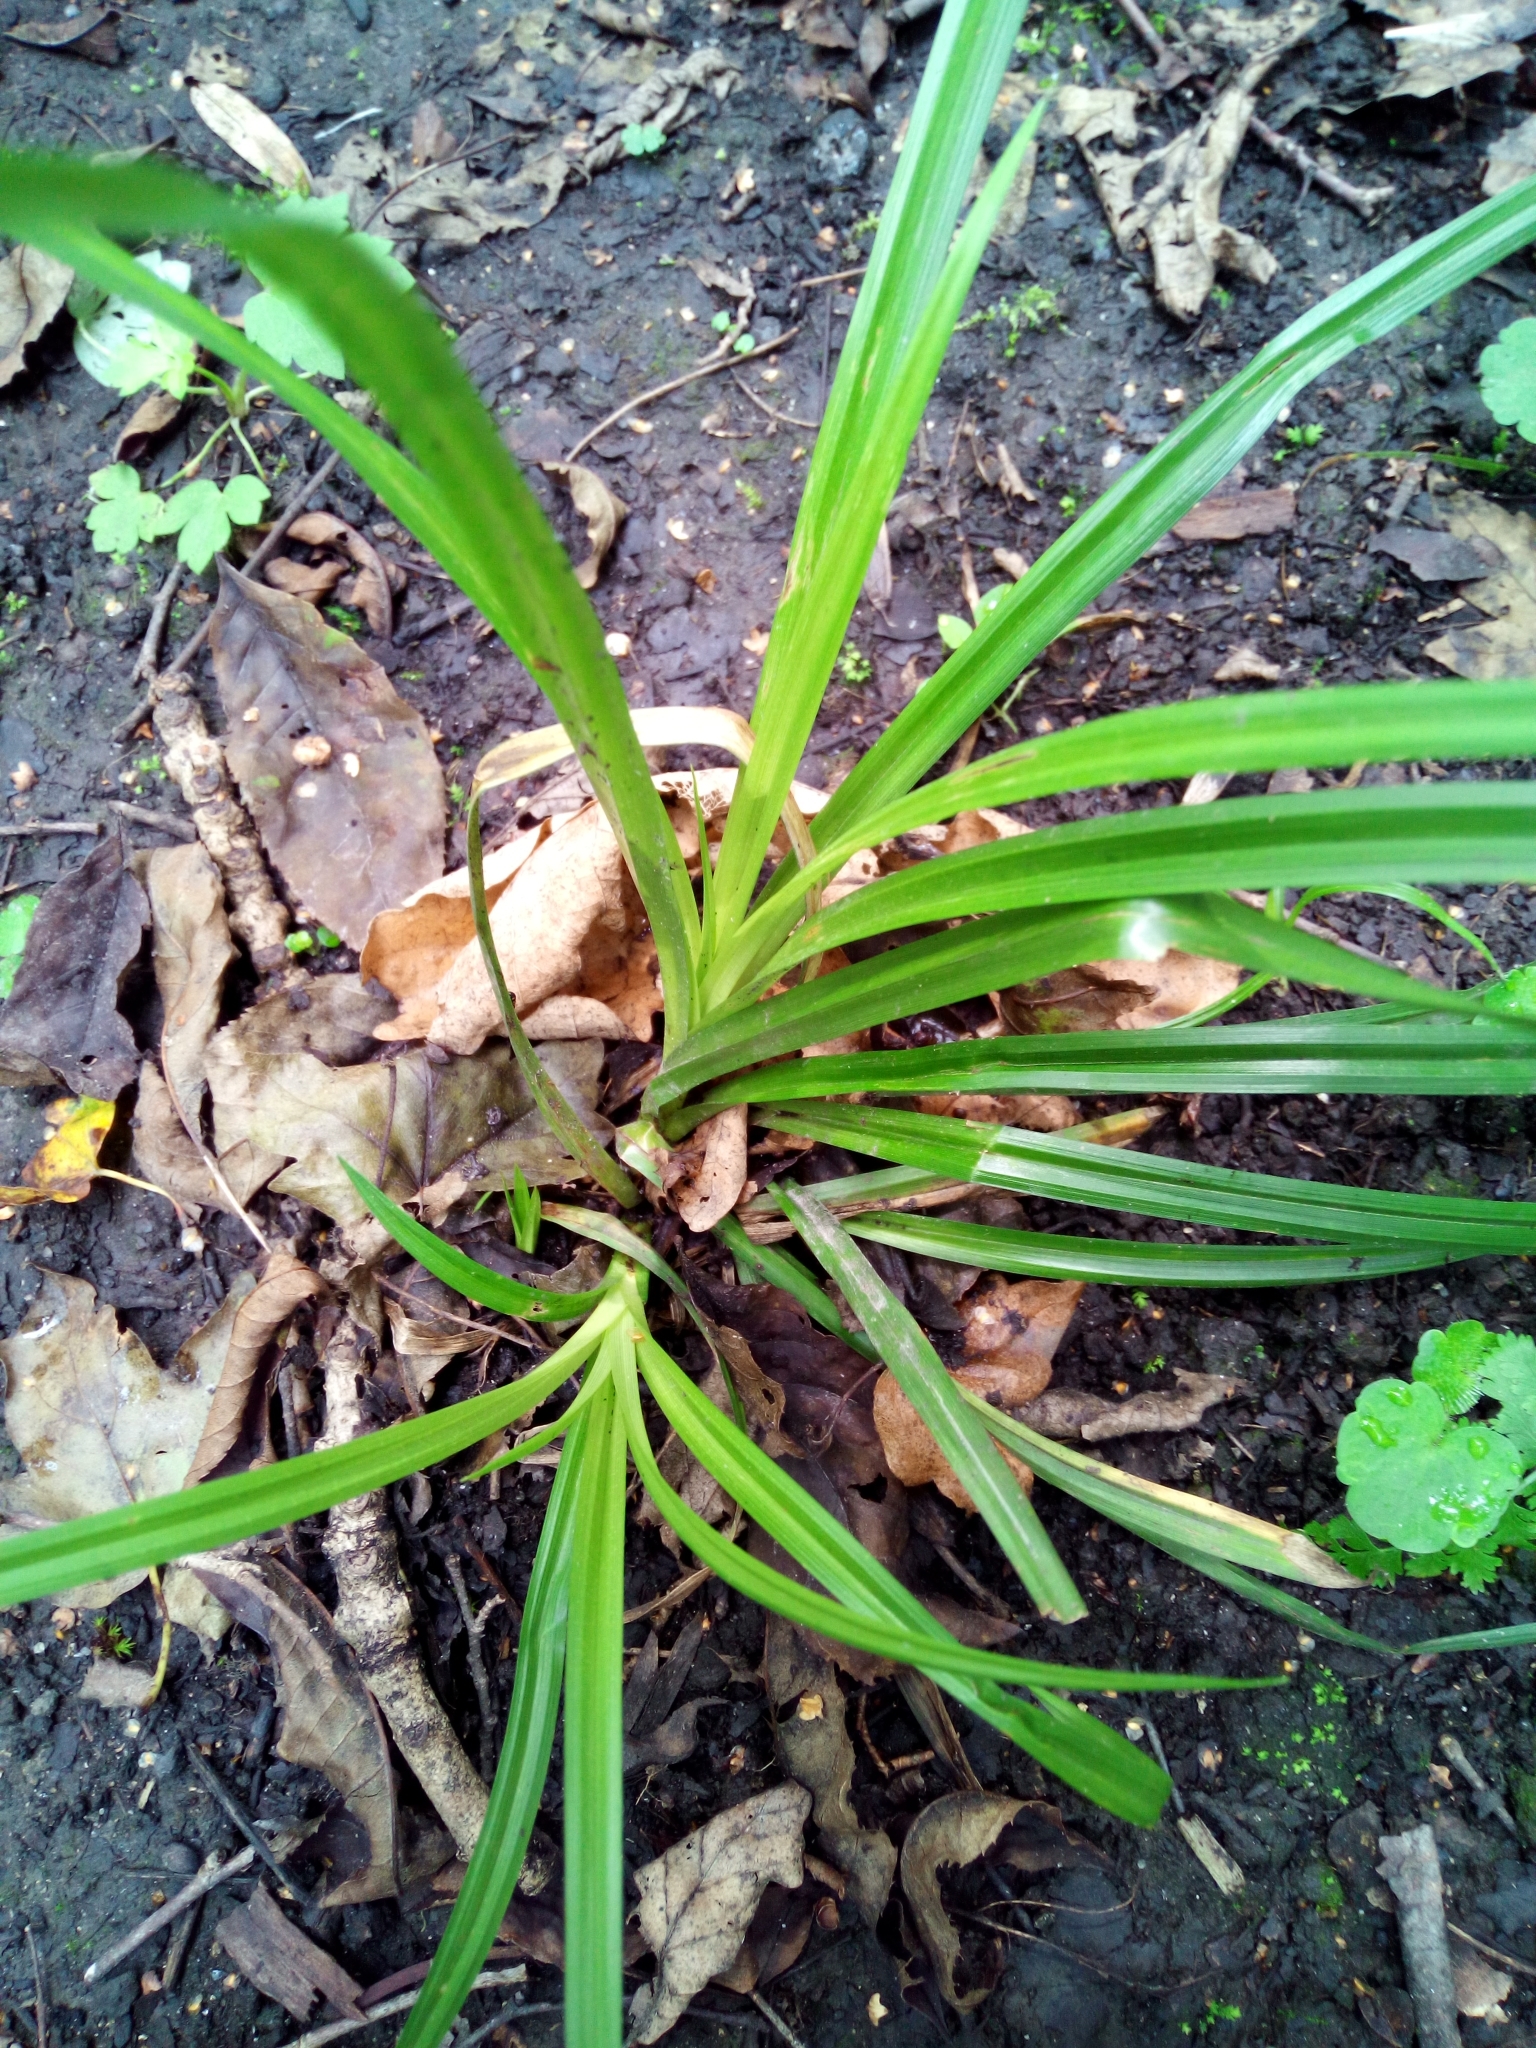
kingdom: Plantae
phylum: Tracheophyta
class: Liliopsida
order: Poales
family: Cyperaceae
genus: Carex
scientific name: Carex sylvatica
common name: Wood-sedge
